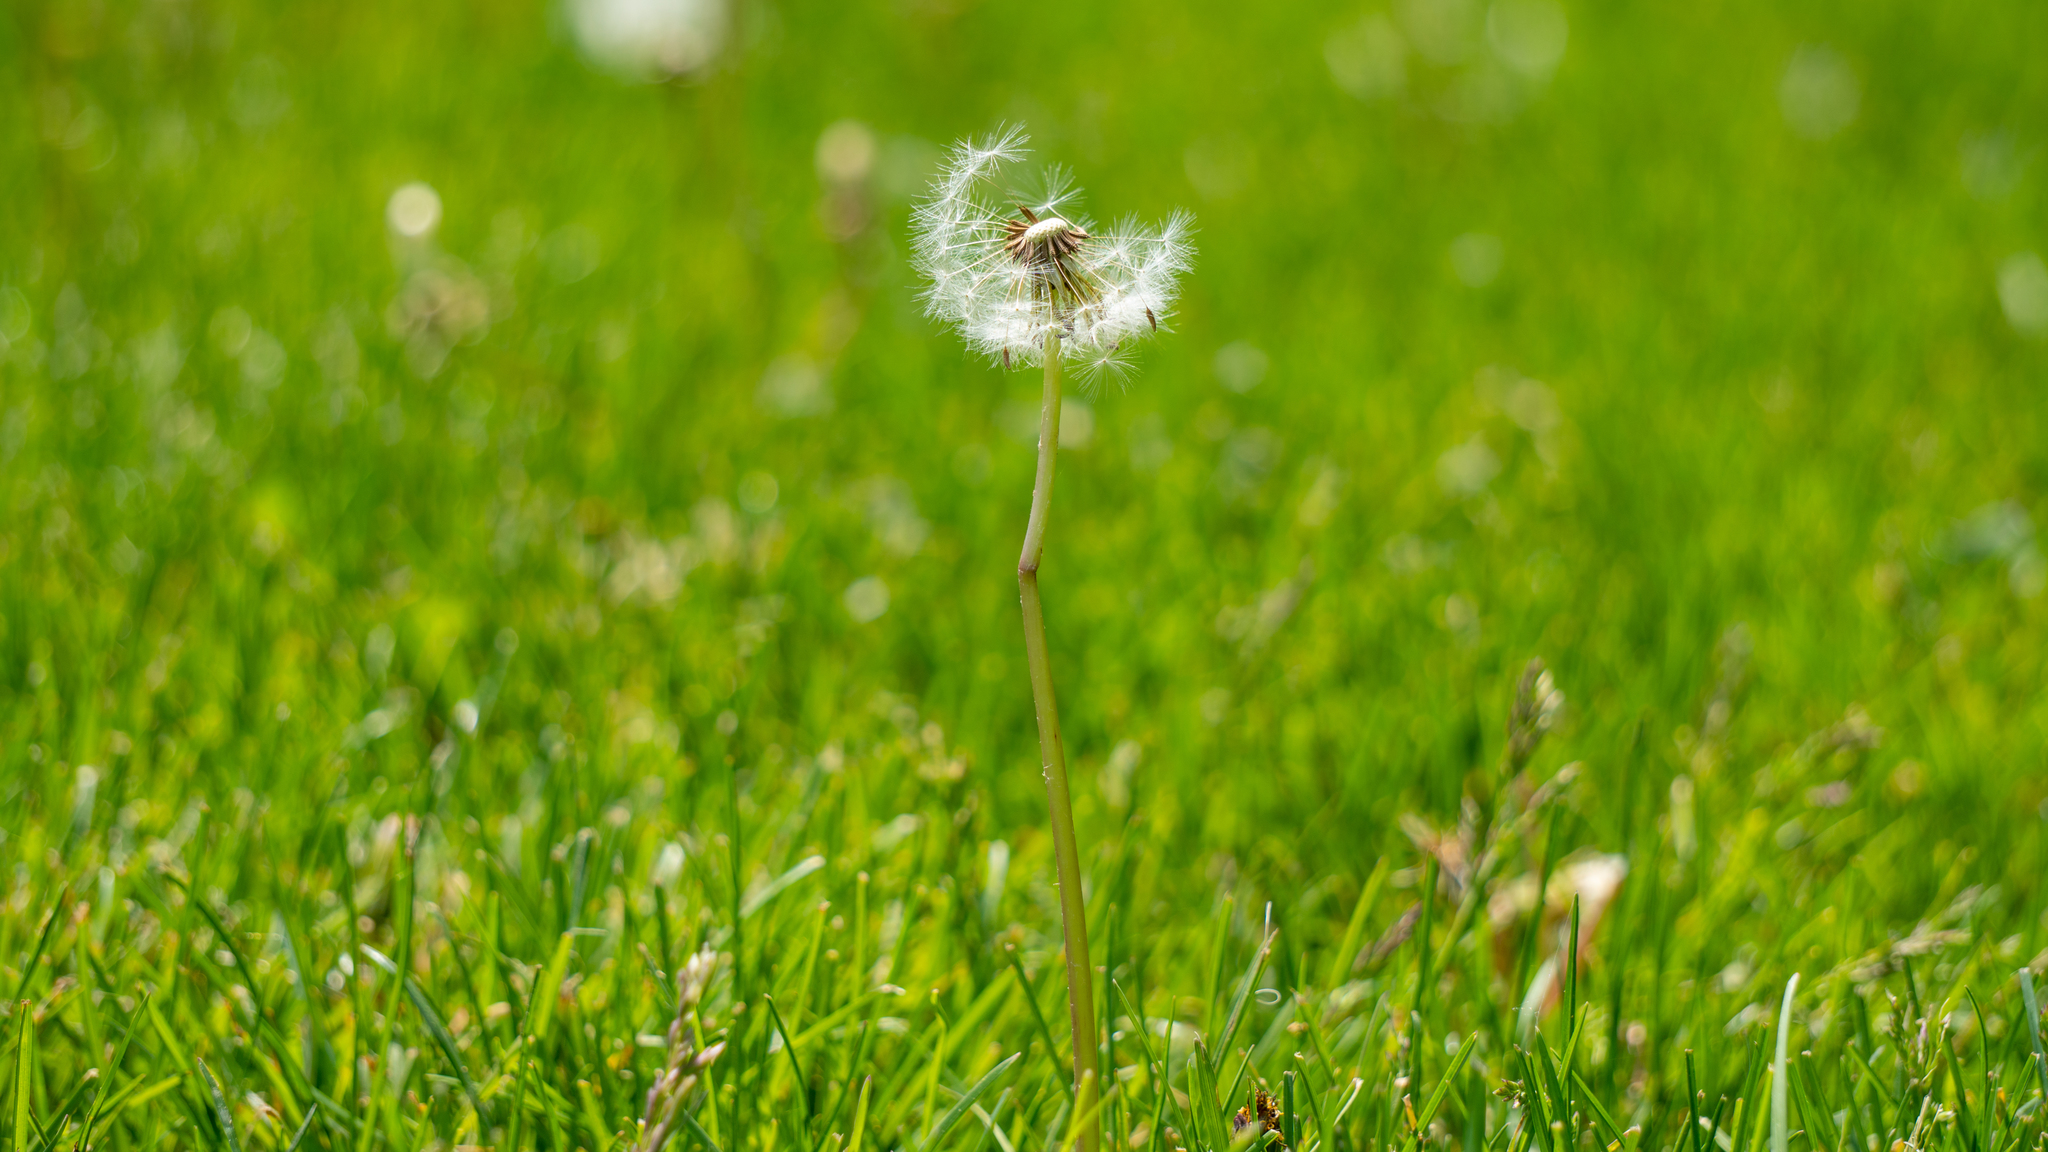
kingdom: Plantae
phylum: Tracheophyta
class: Magnoliopsida
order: Asterales
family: Asteraceae
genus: Taraxacum
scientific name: Taraxacum officinale
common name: Common dandelion
